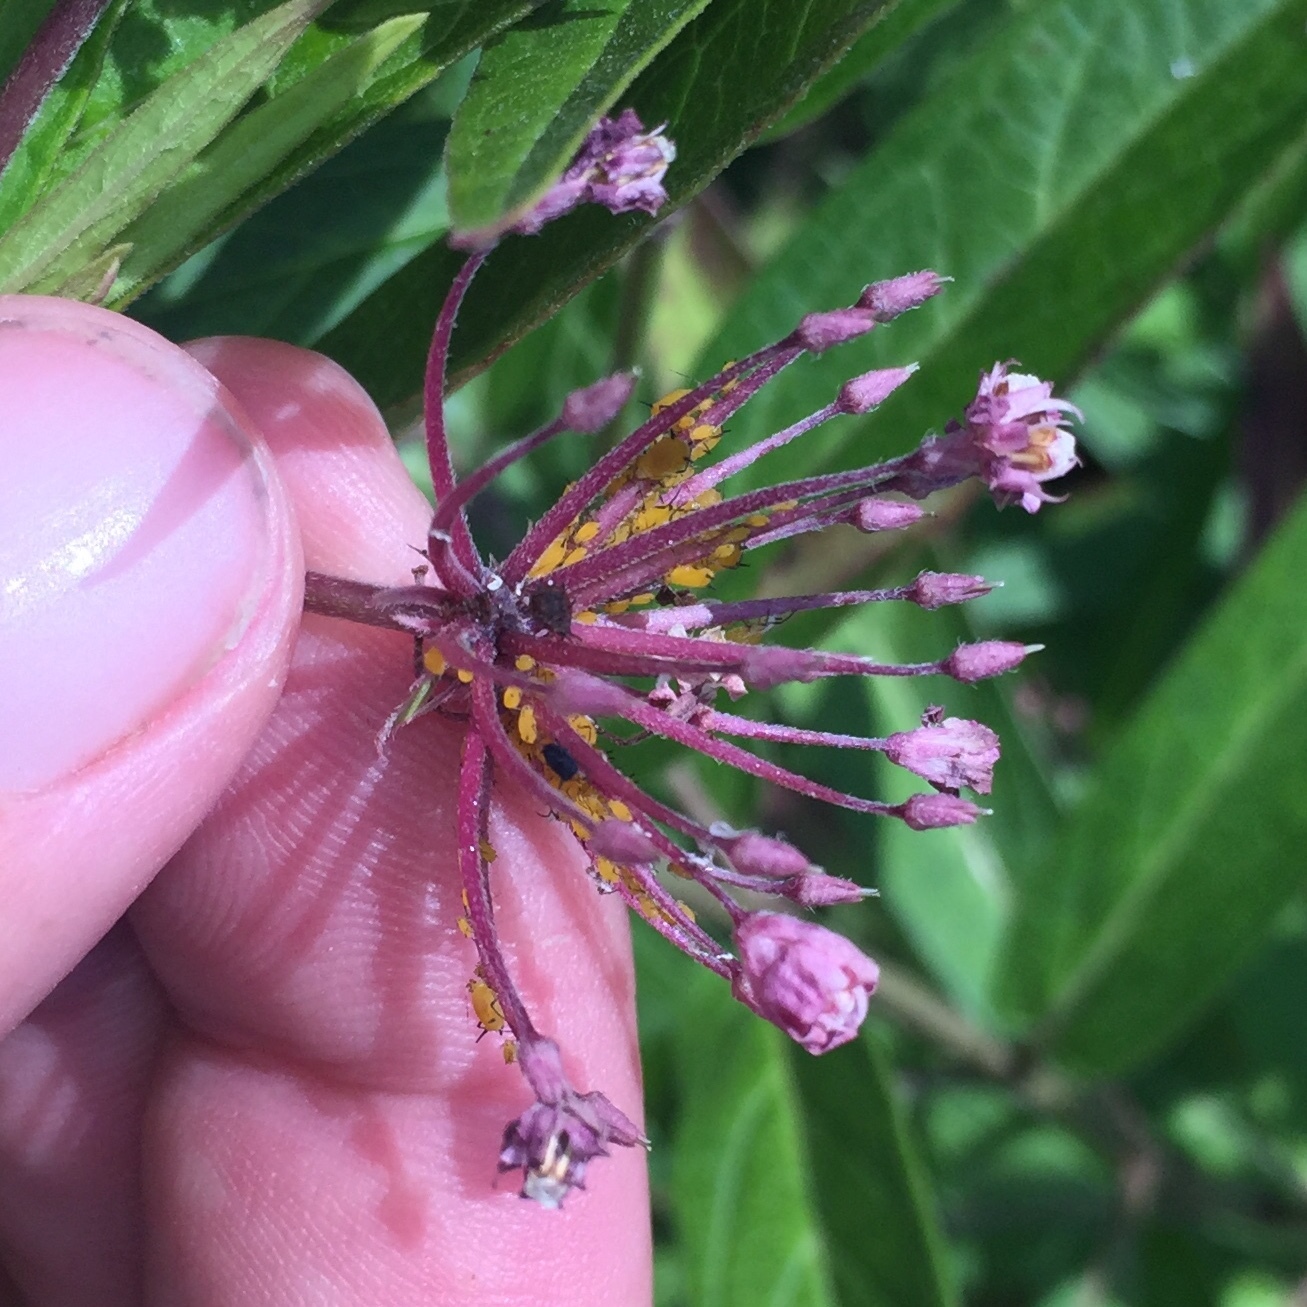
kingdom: Animalia
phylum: Arthropoda
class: Insecta
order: Hemiptera
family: Aphididae
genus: Aphis
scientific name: Aphis nerii
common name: Oleander aphid
